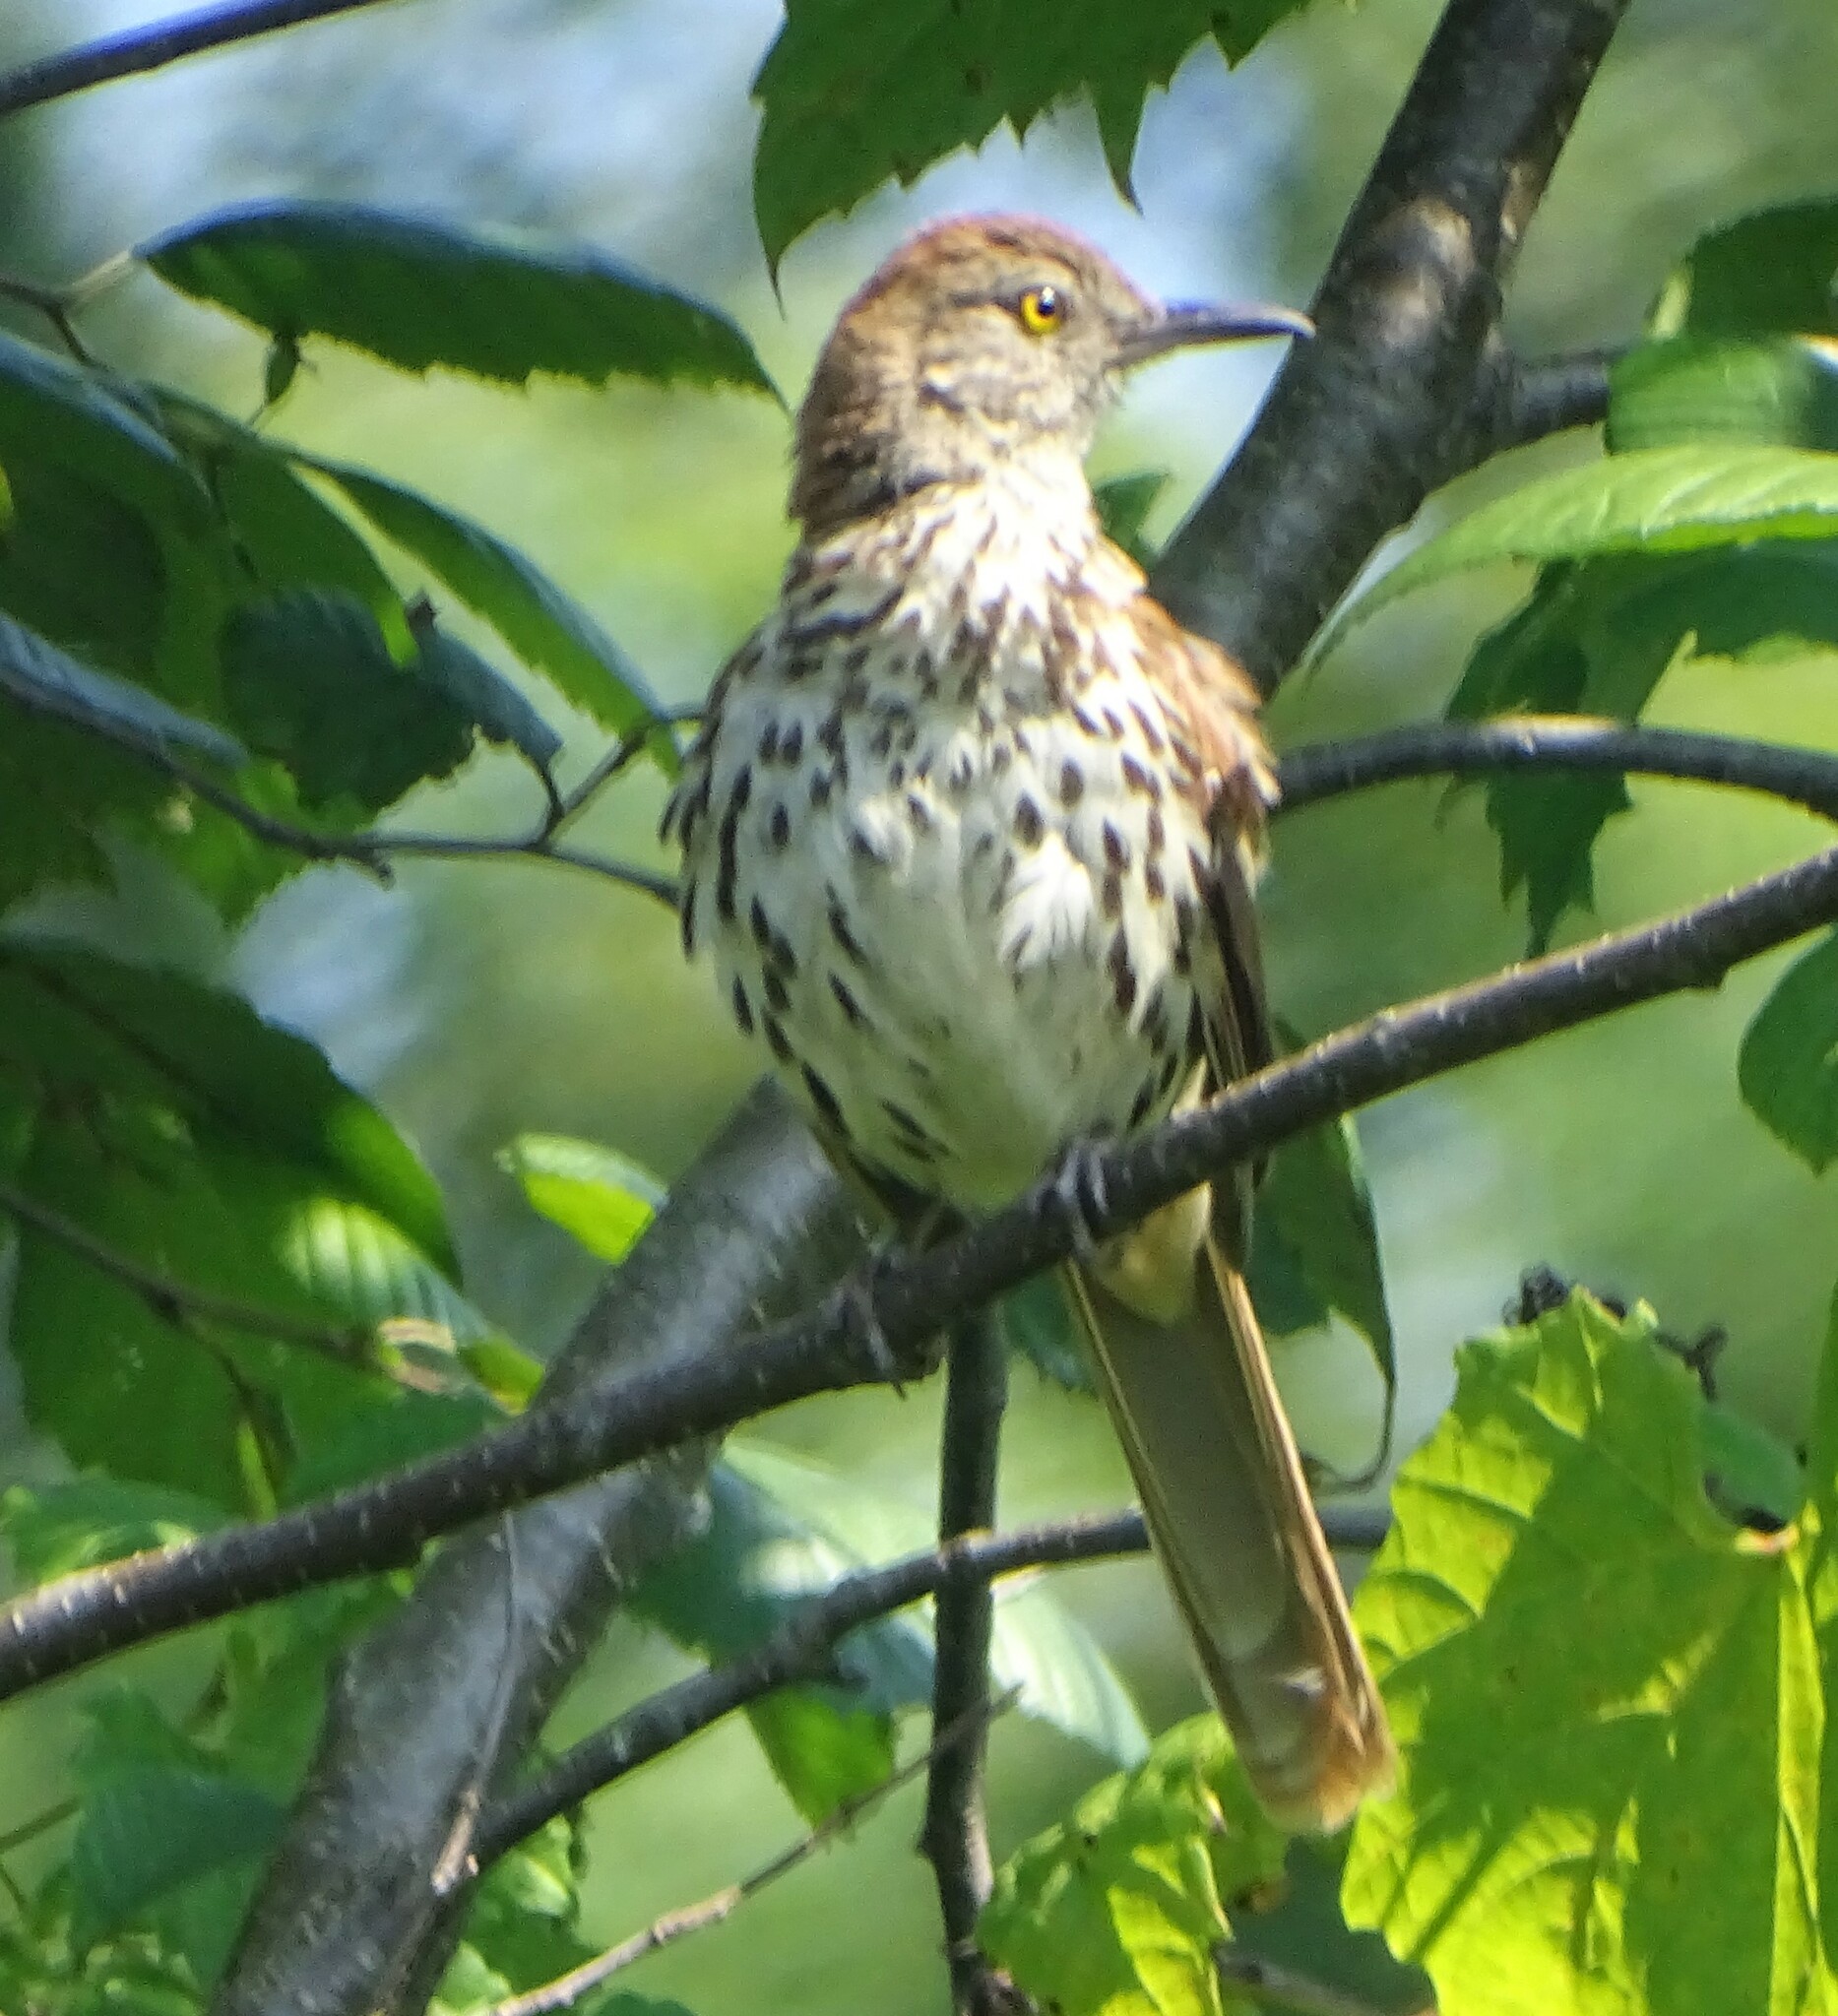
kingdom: Animalia
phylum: Chordata
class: Aves
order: Passeriformes
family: Mimidae
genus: Toxostoma
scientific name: Toxostoma rufum
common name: Brown thrasher
